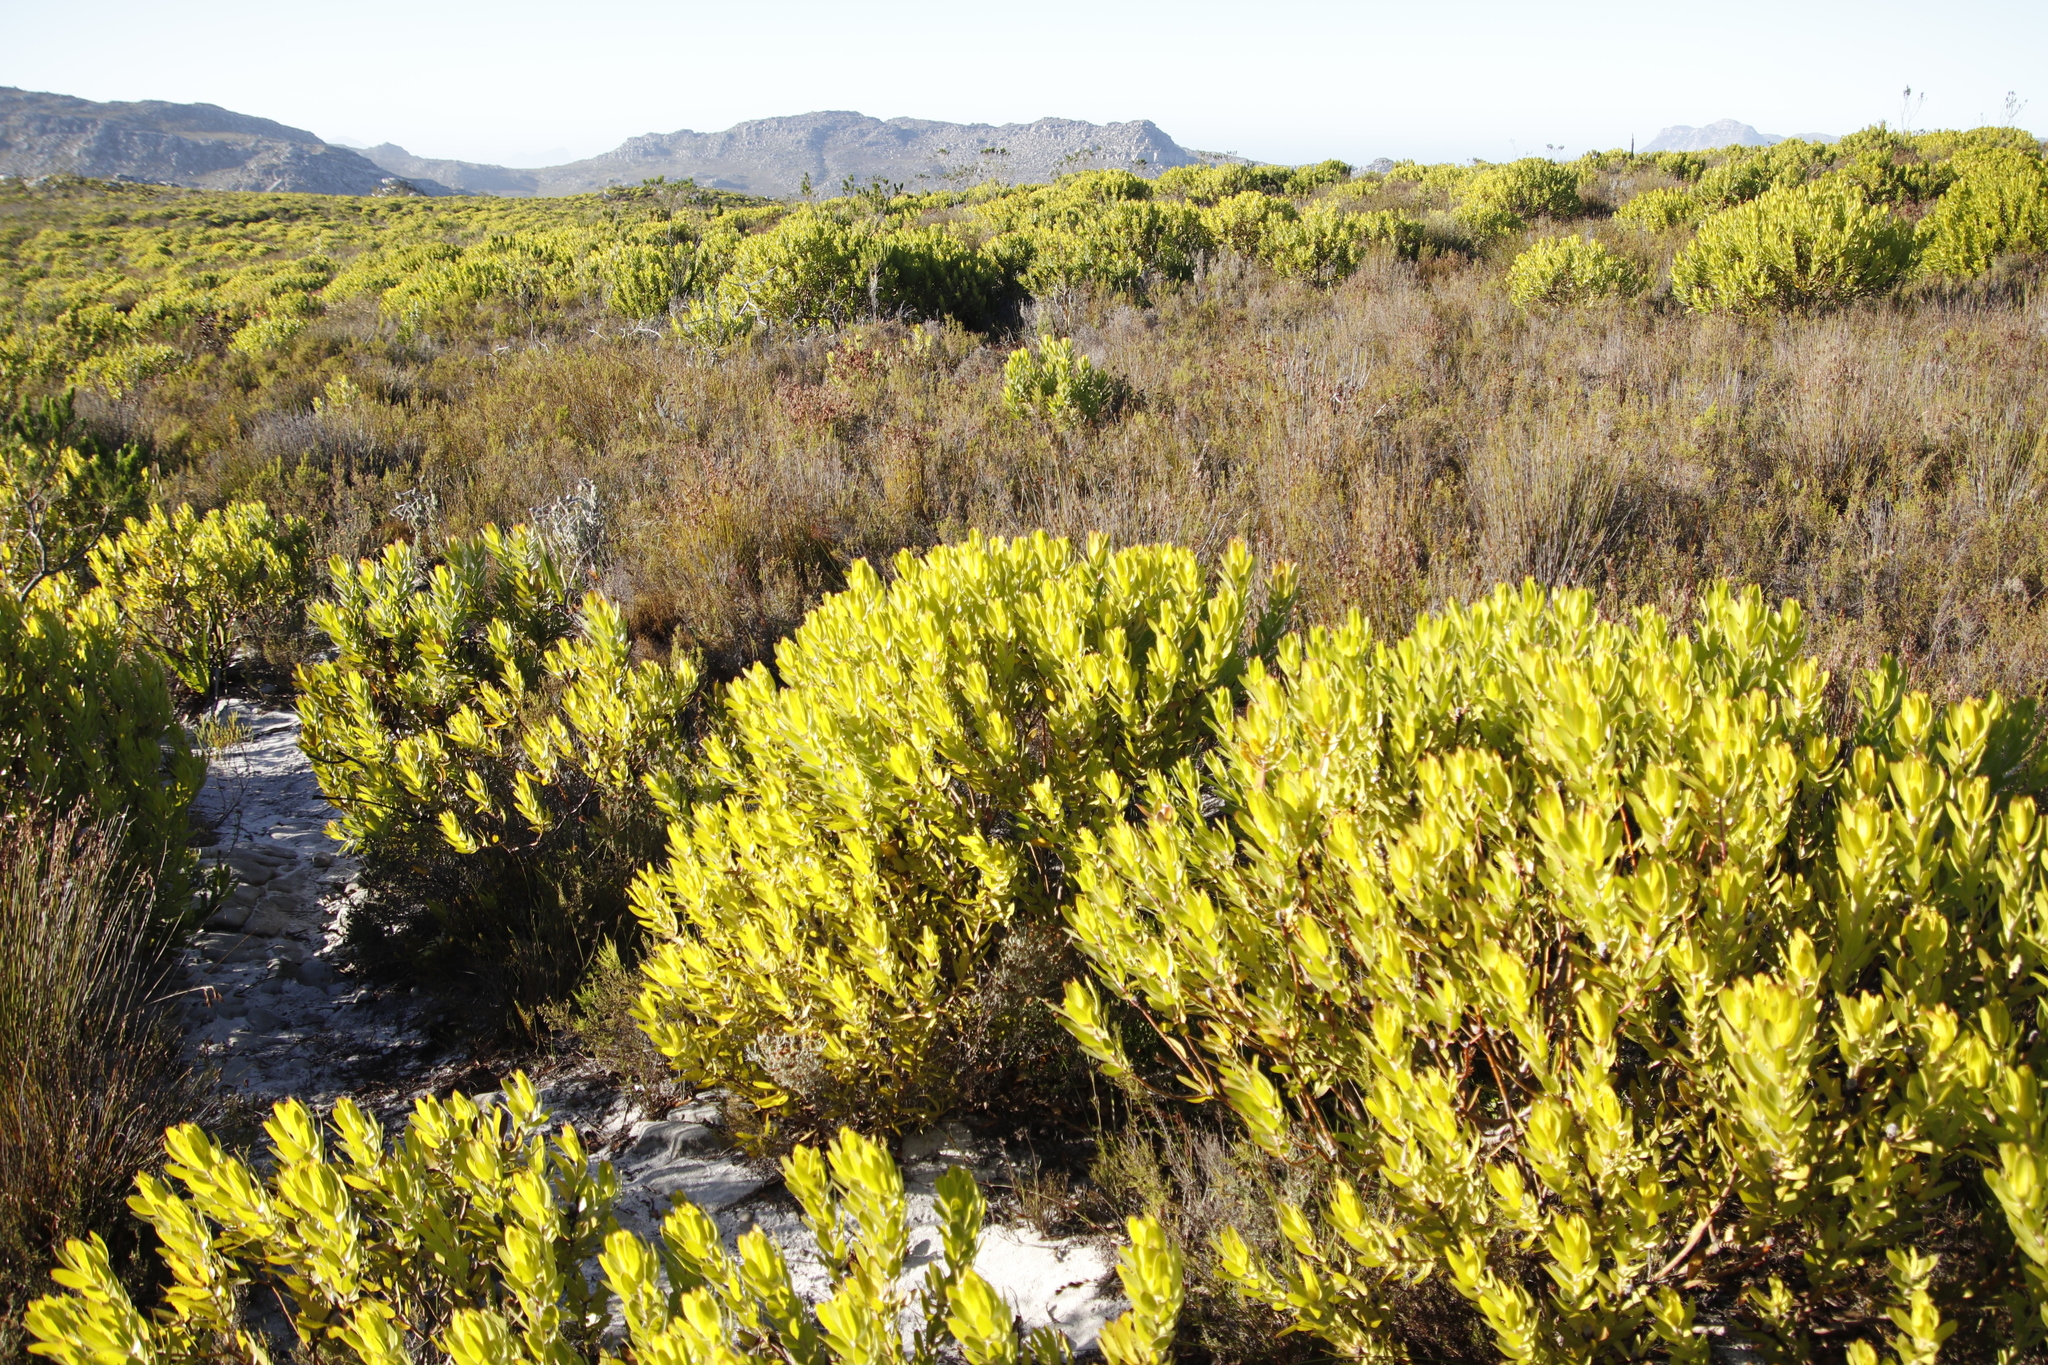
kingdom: Plantae
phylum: Tracheophyta
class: Magnoliopsida
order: Proteales
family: Proteaceae
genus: Leucadendron
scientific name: Leucadendron laureolum
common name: Golden sunshinebush
